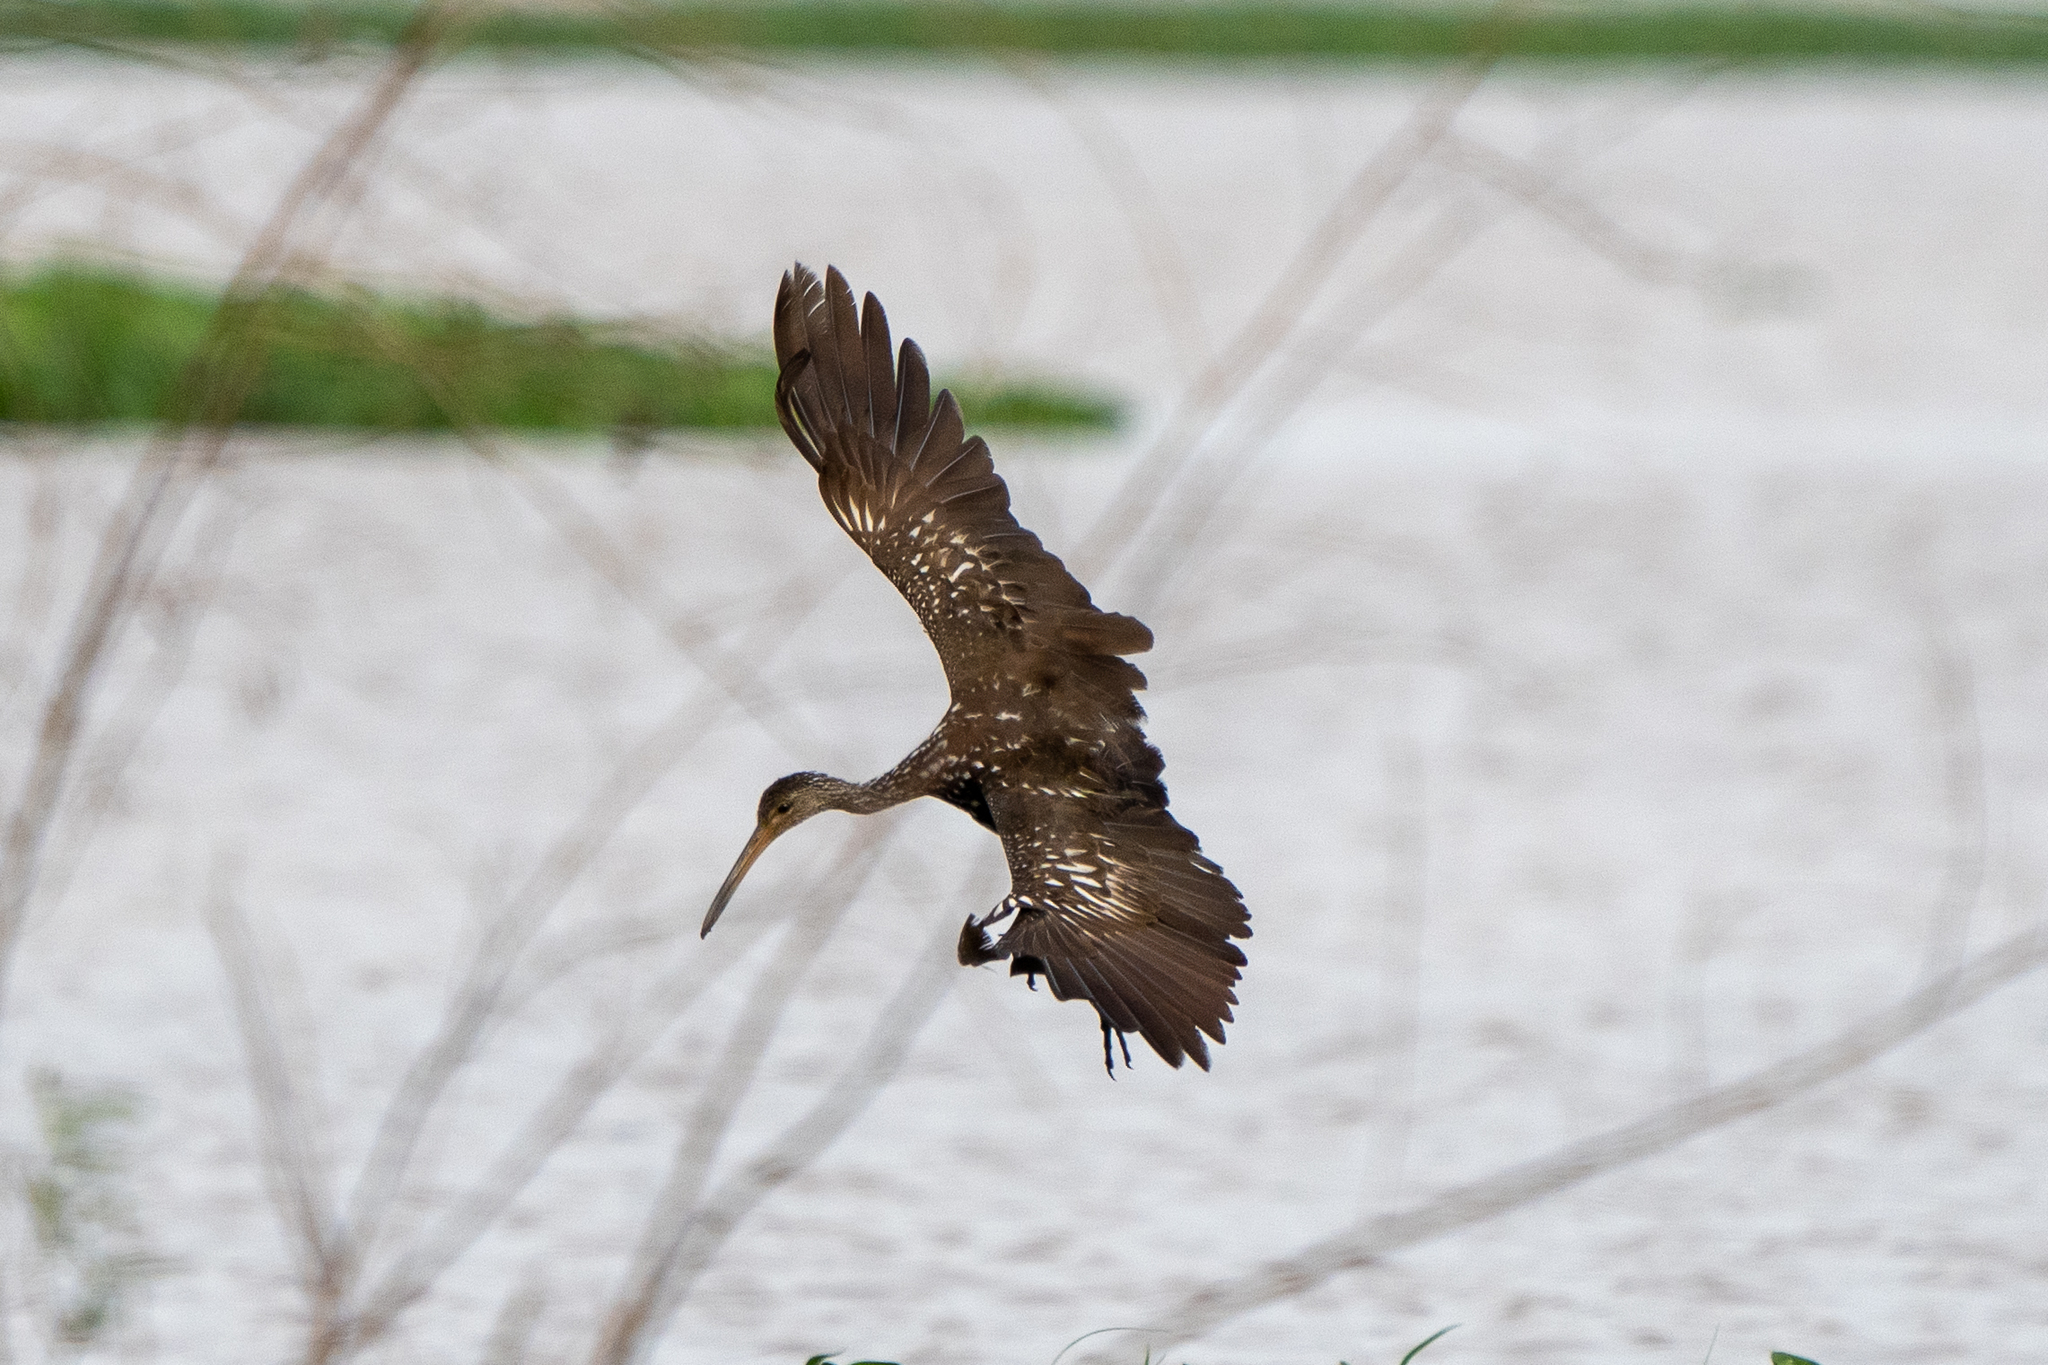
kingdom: Animalia
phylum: Chordata
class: Aves
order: Gruiformes
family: Aramidae
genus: Aramus
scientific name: Aramus guarauna
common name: Limpkin
